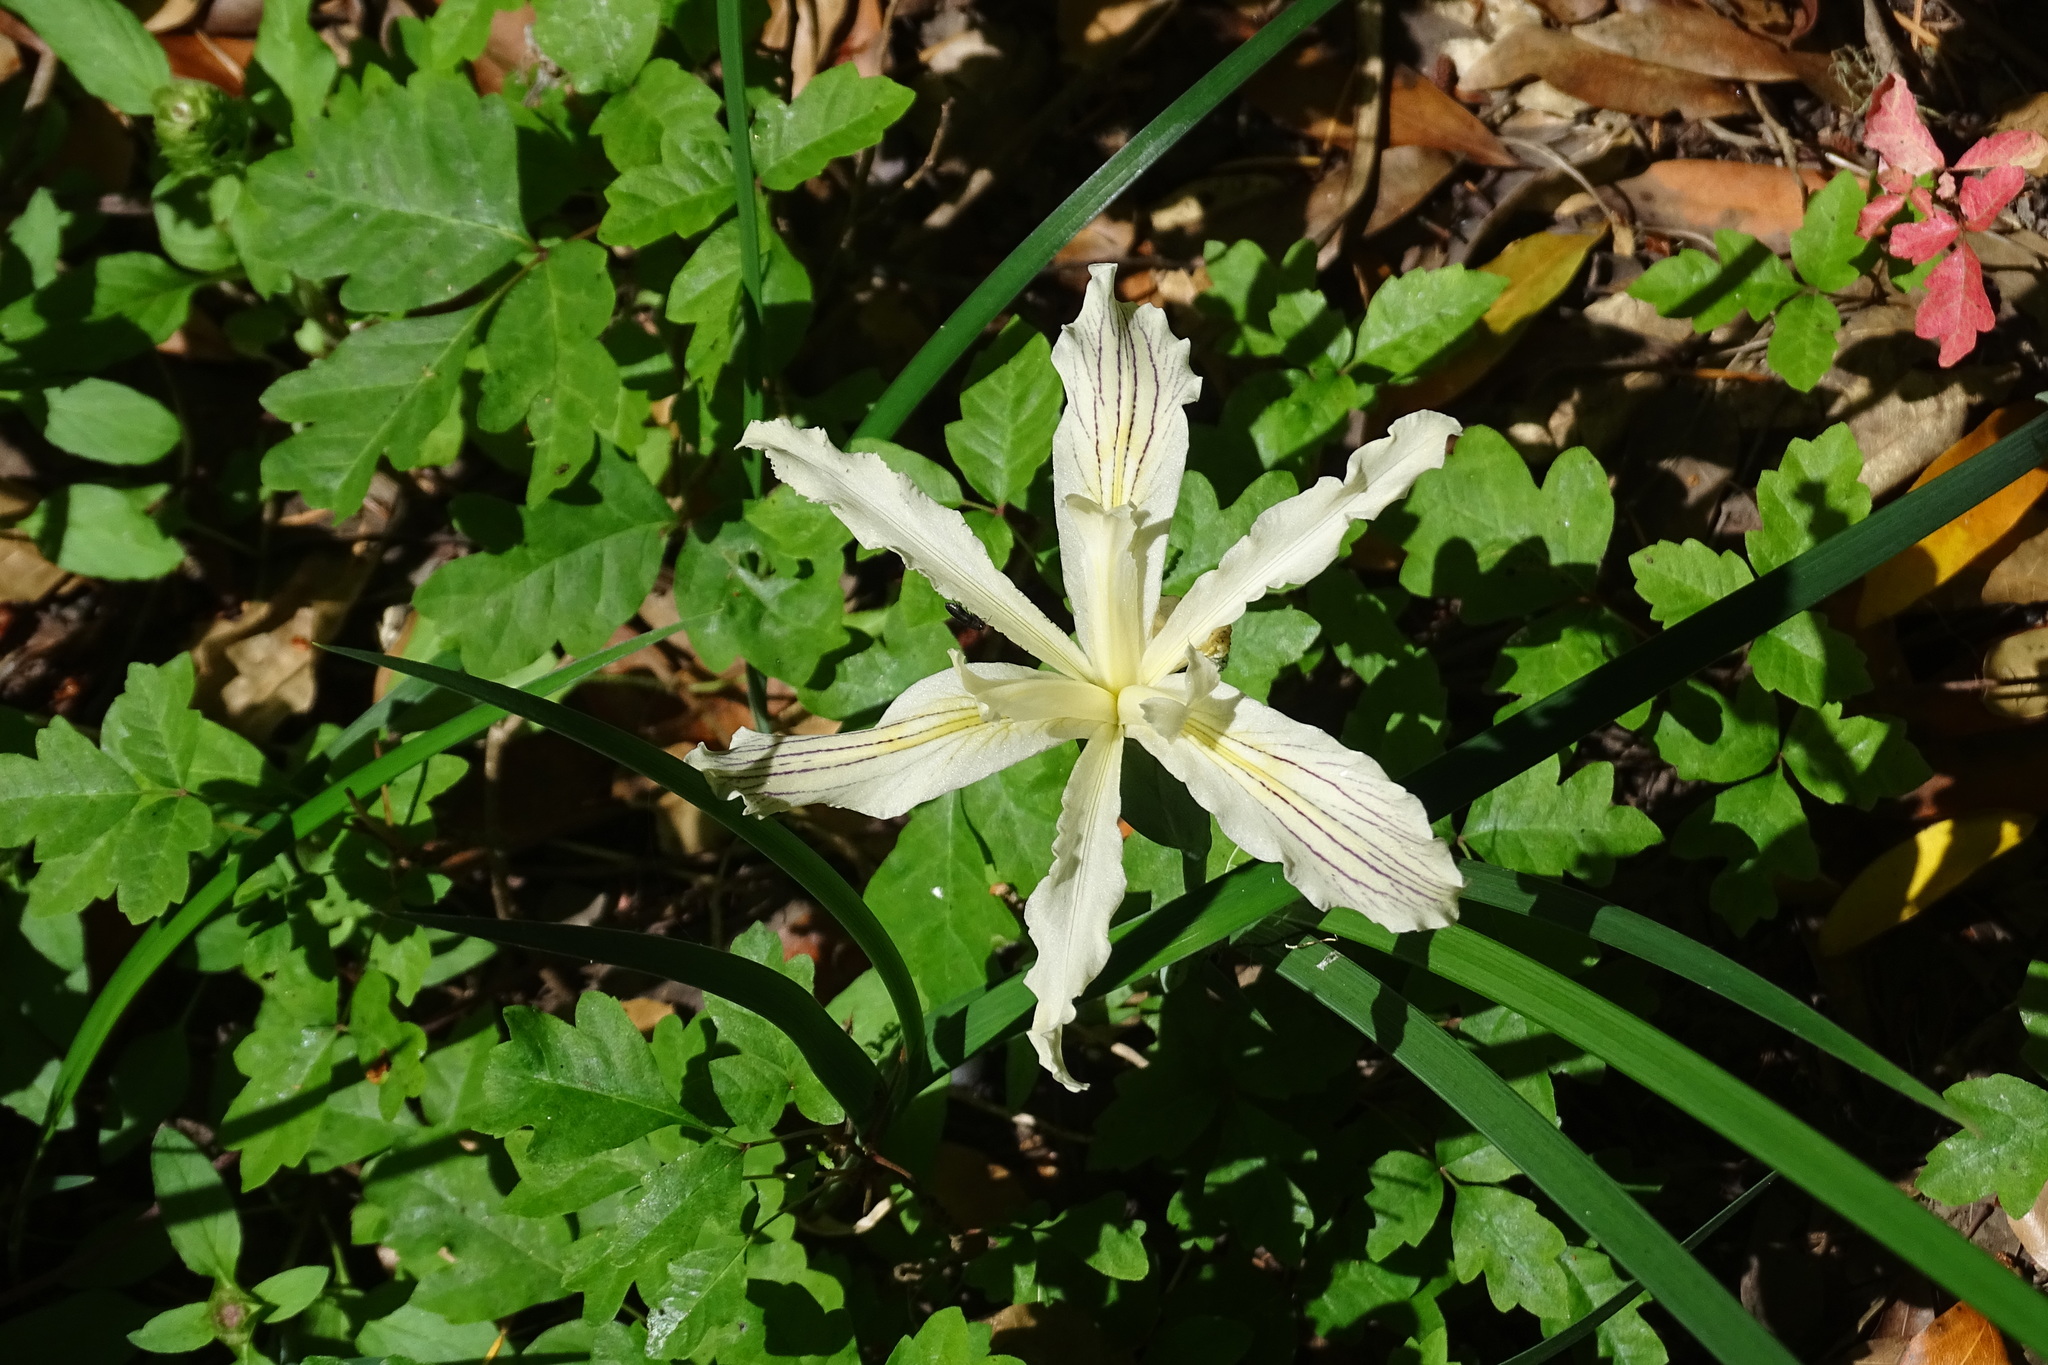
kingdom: Plantae
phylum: Tracheophyta
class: Liliopsida
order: Asparagales
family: Iridaceae
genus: Iris
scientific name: Iris purdyi
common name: Purdy's iris
